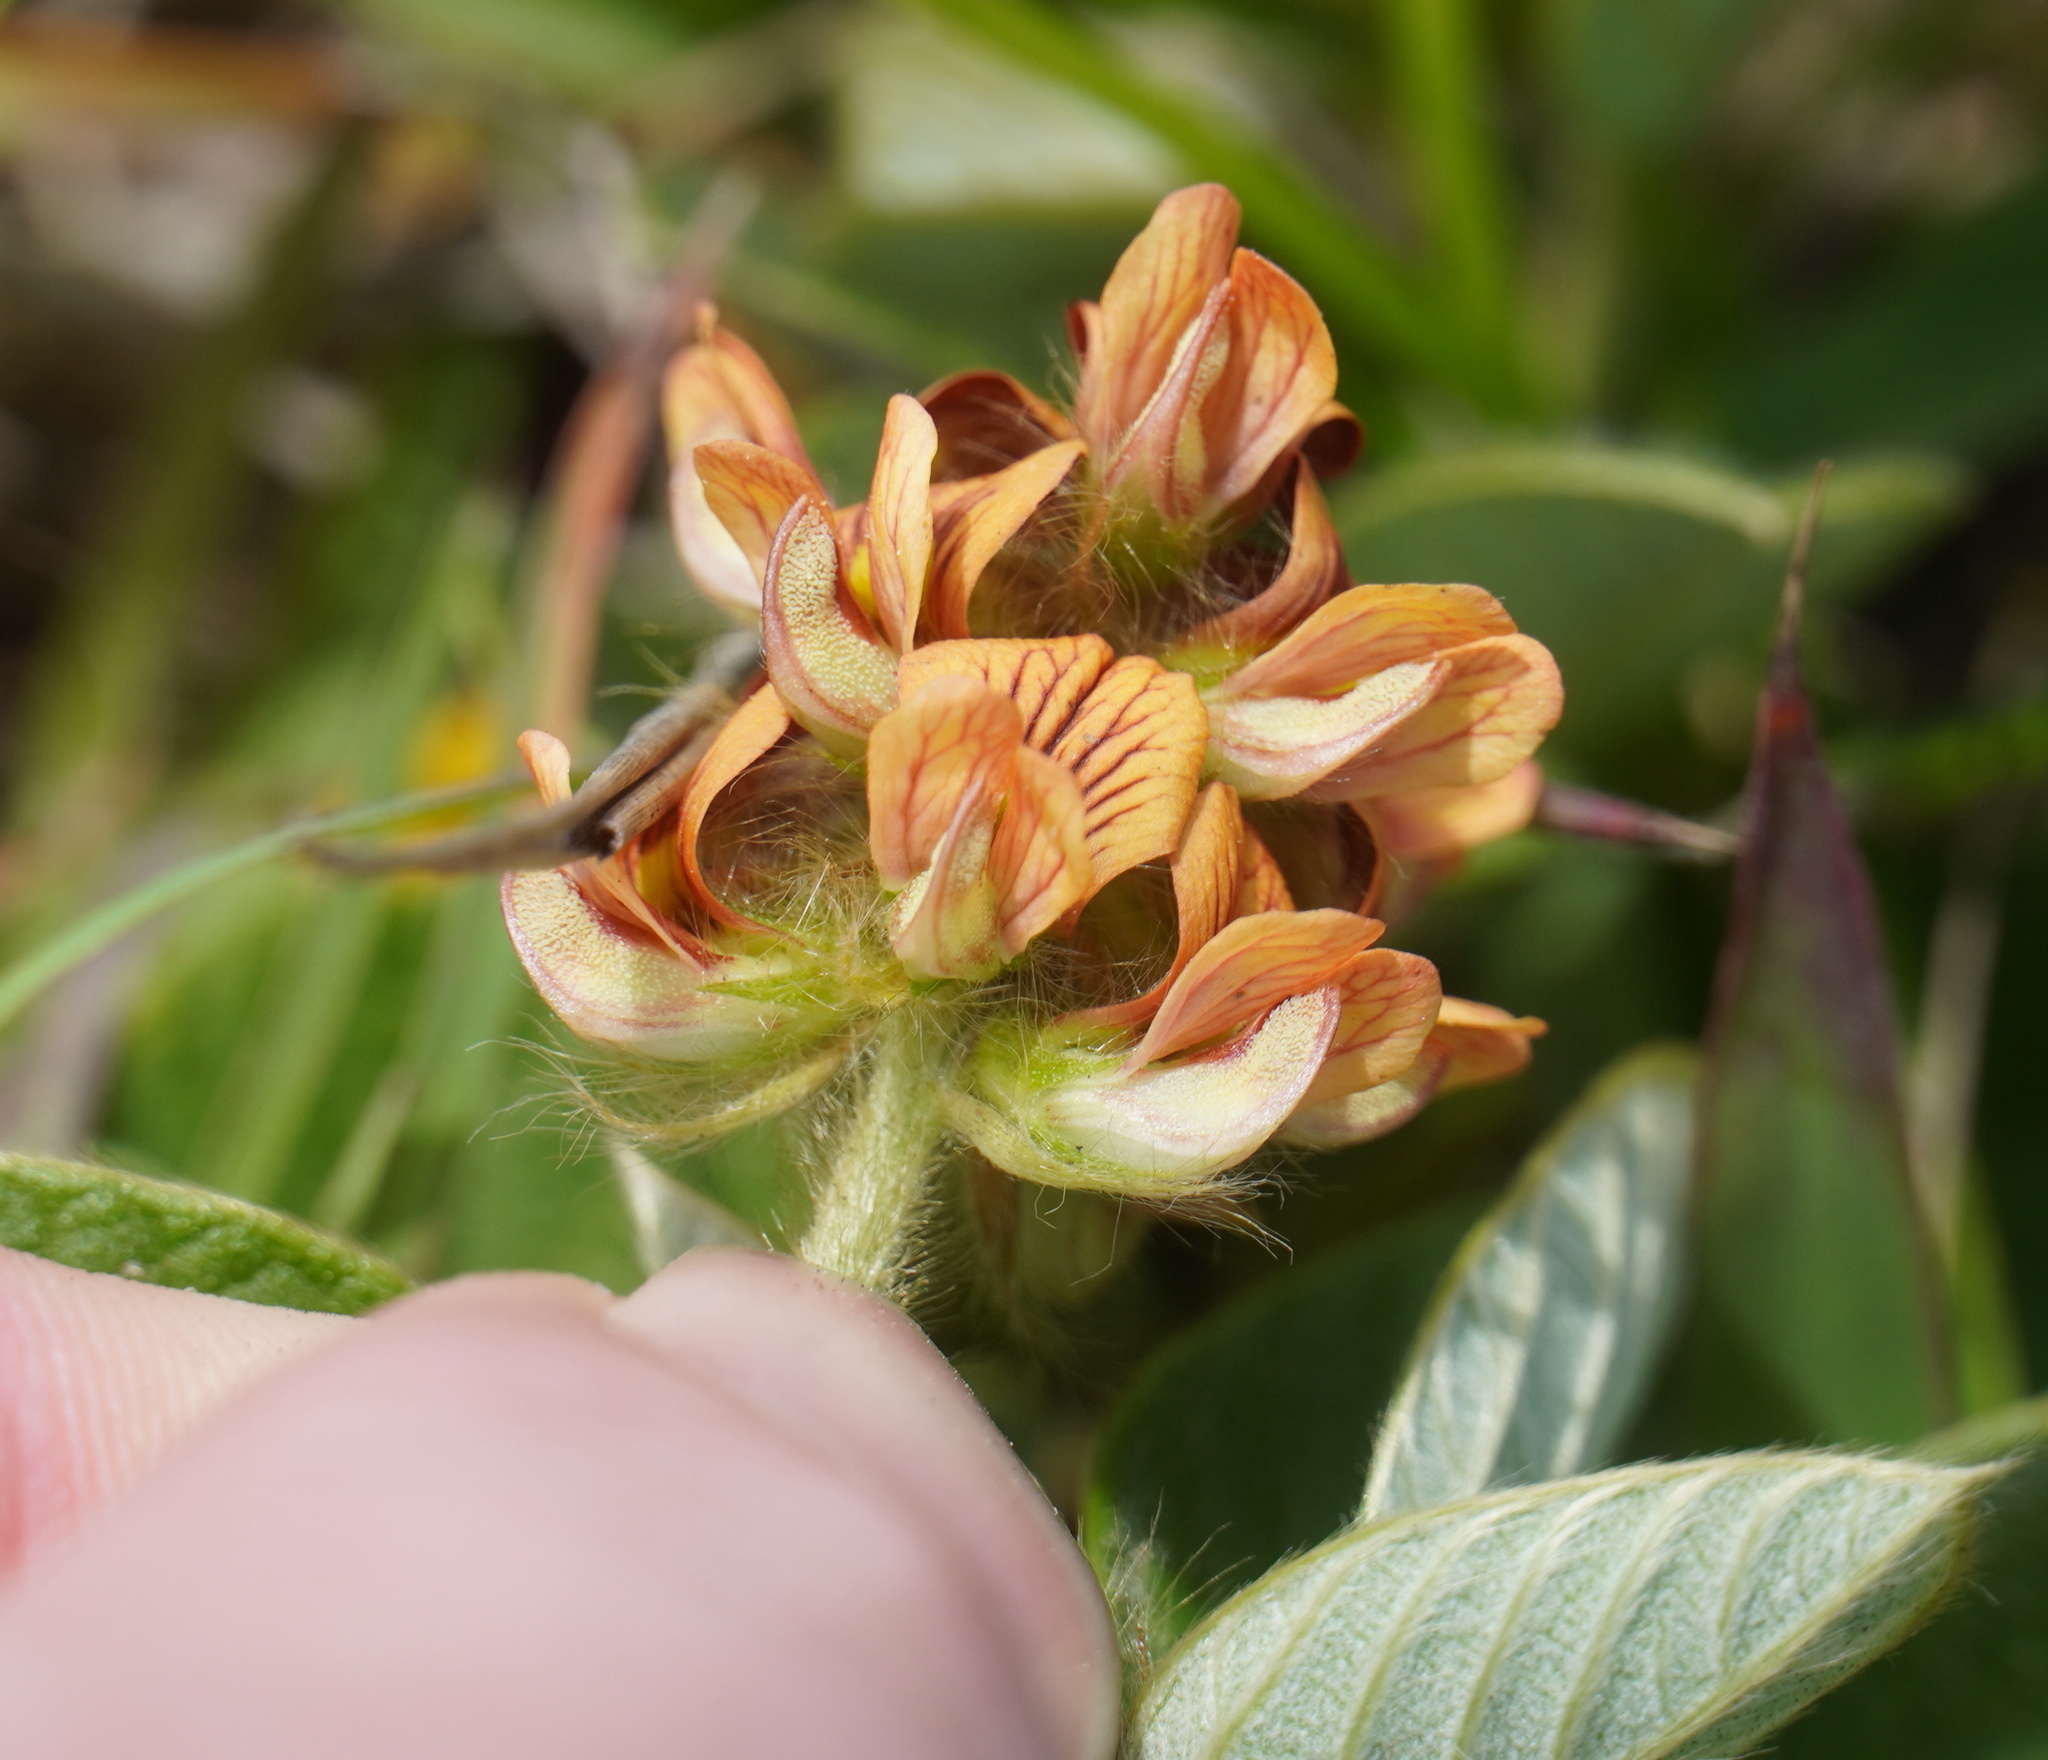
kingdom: Plantae
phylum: Tracheophyta
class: Magnoliopsida
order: Fabales
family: Fabaceae
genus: Eriosema
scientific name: Eriosema acuminatum
